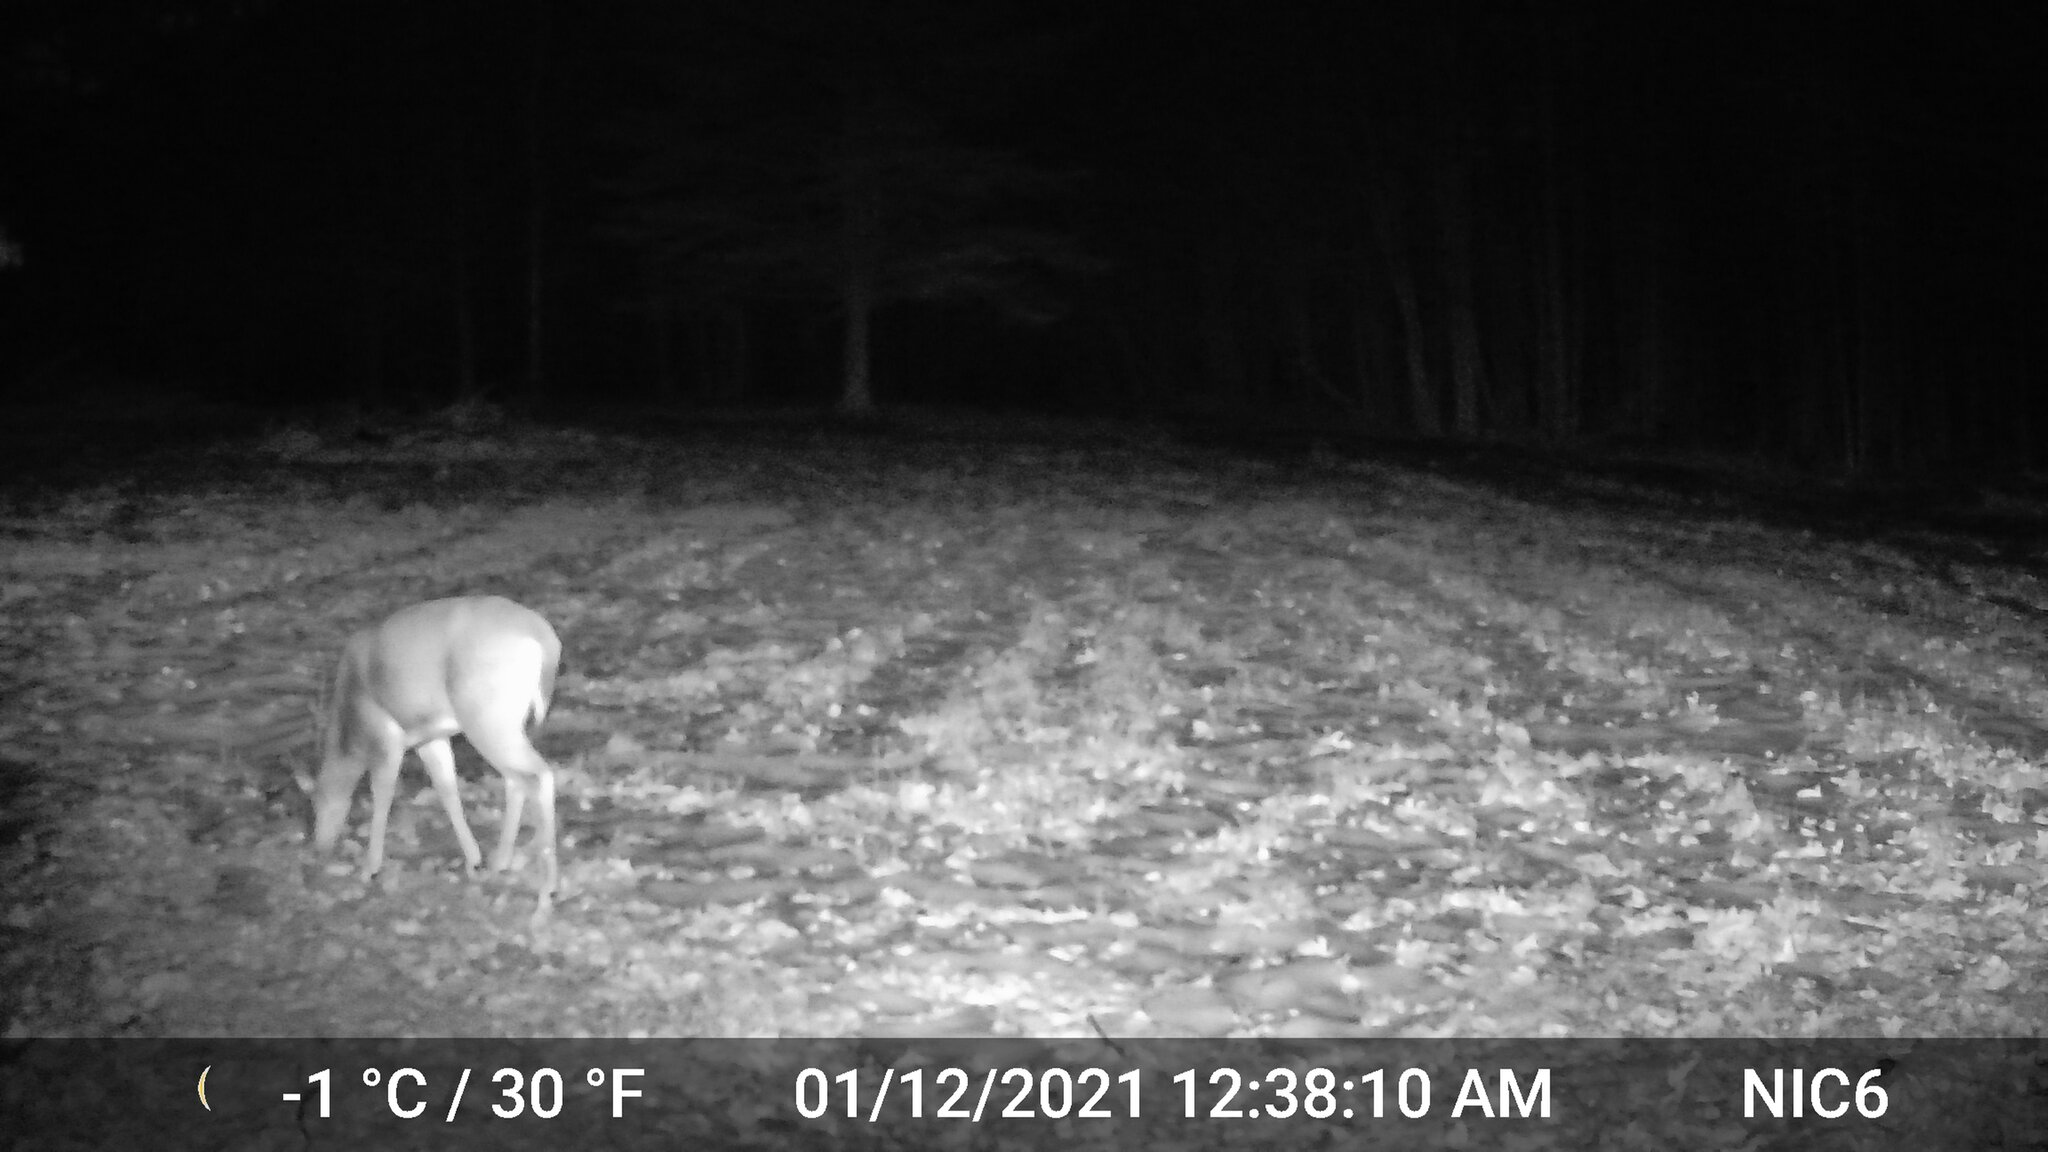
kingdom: Animalia
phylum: Chordata
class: Mammalia
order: Artiodactyla
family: Cervidae
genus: Odocoileus
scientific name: Odocoileus virginianus
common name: White-tailed deer
